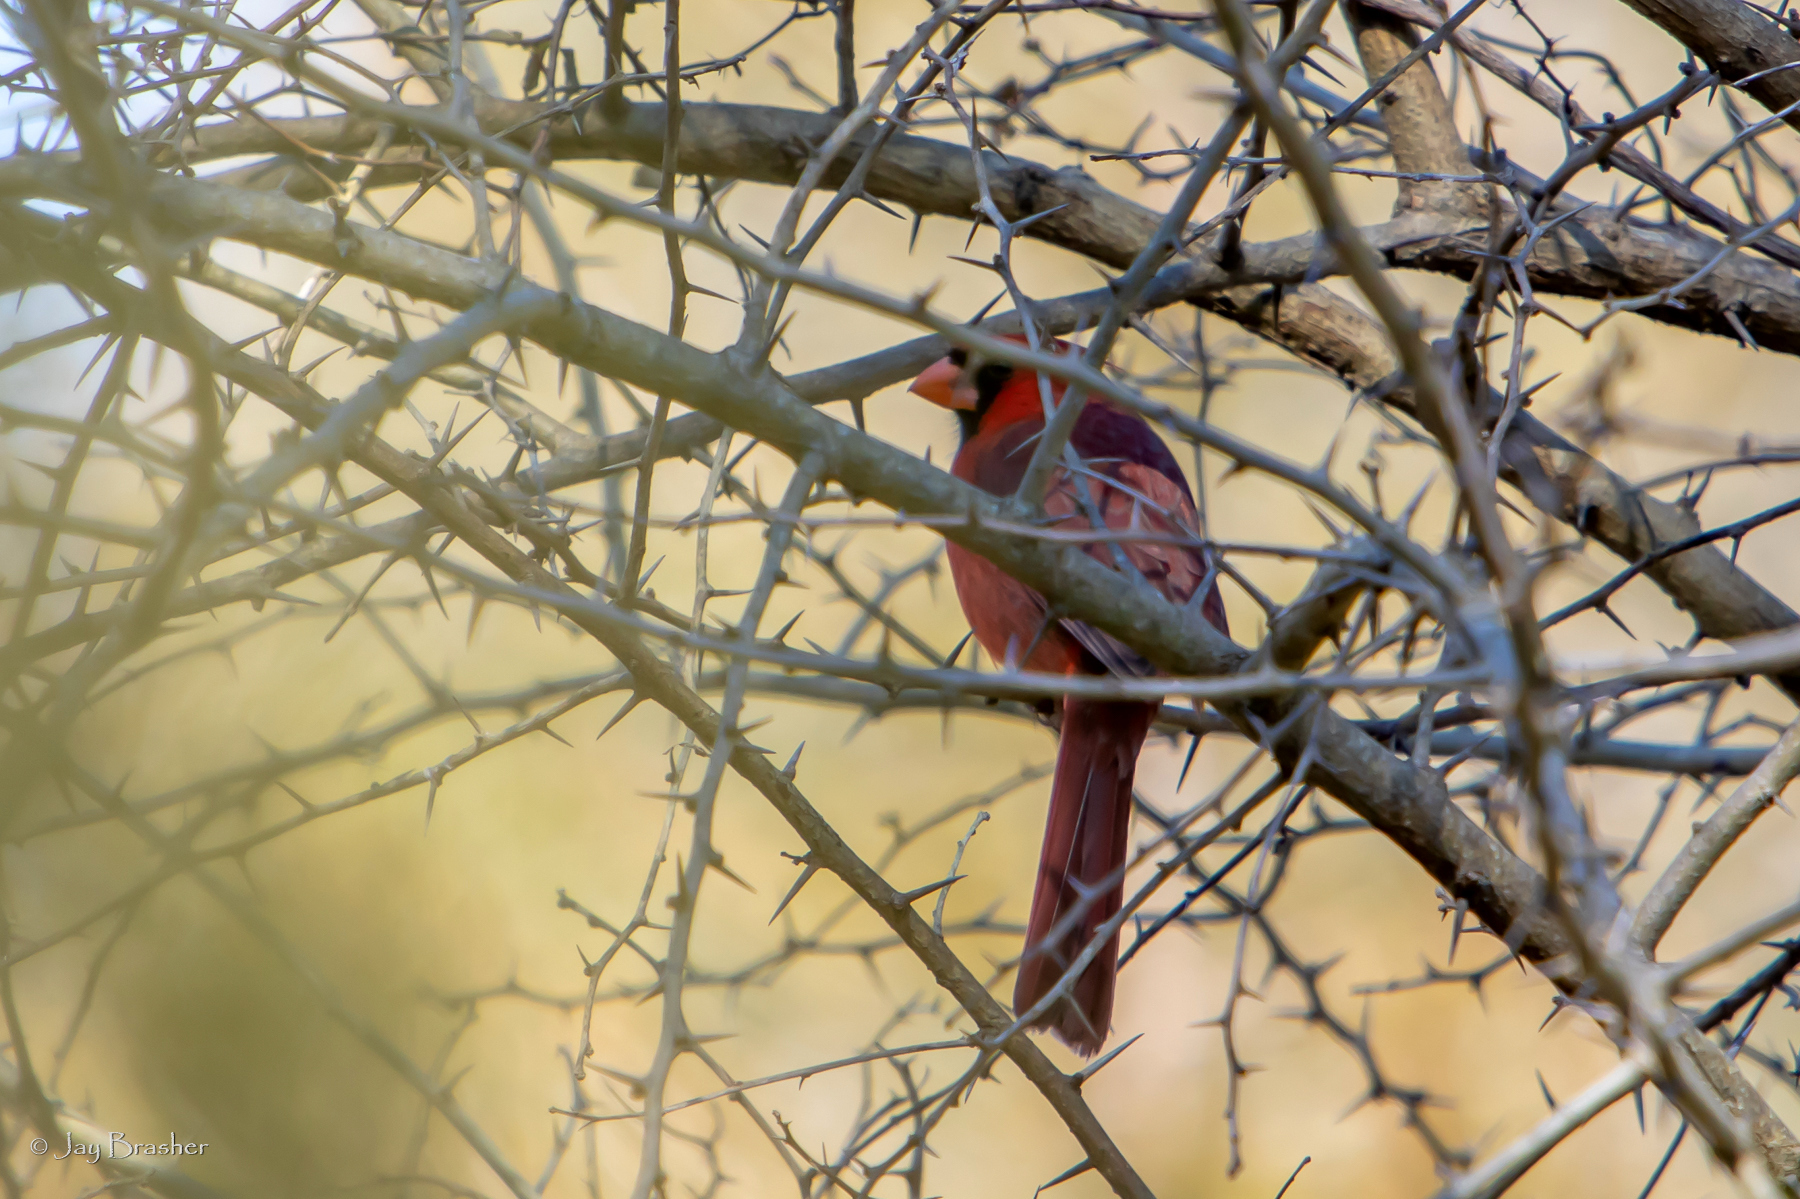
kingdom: Animalia
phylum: Chordata
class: Aves
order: Passeriformes
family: Cardinalidae
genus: Cardinalis
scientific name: Cardinalis cardinalis
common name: Northern cardinal
